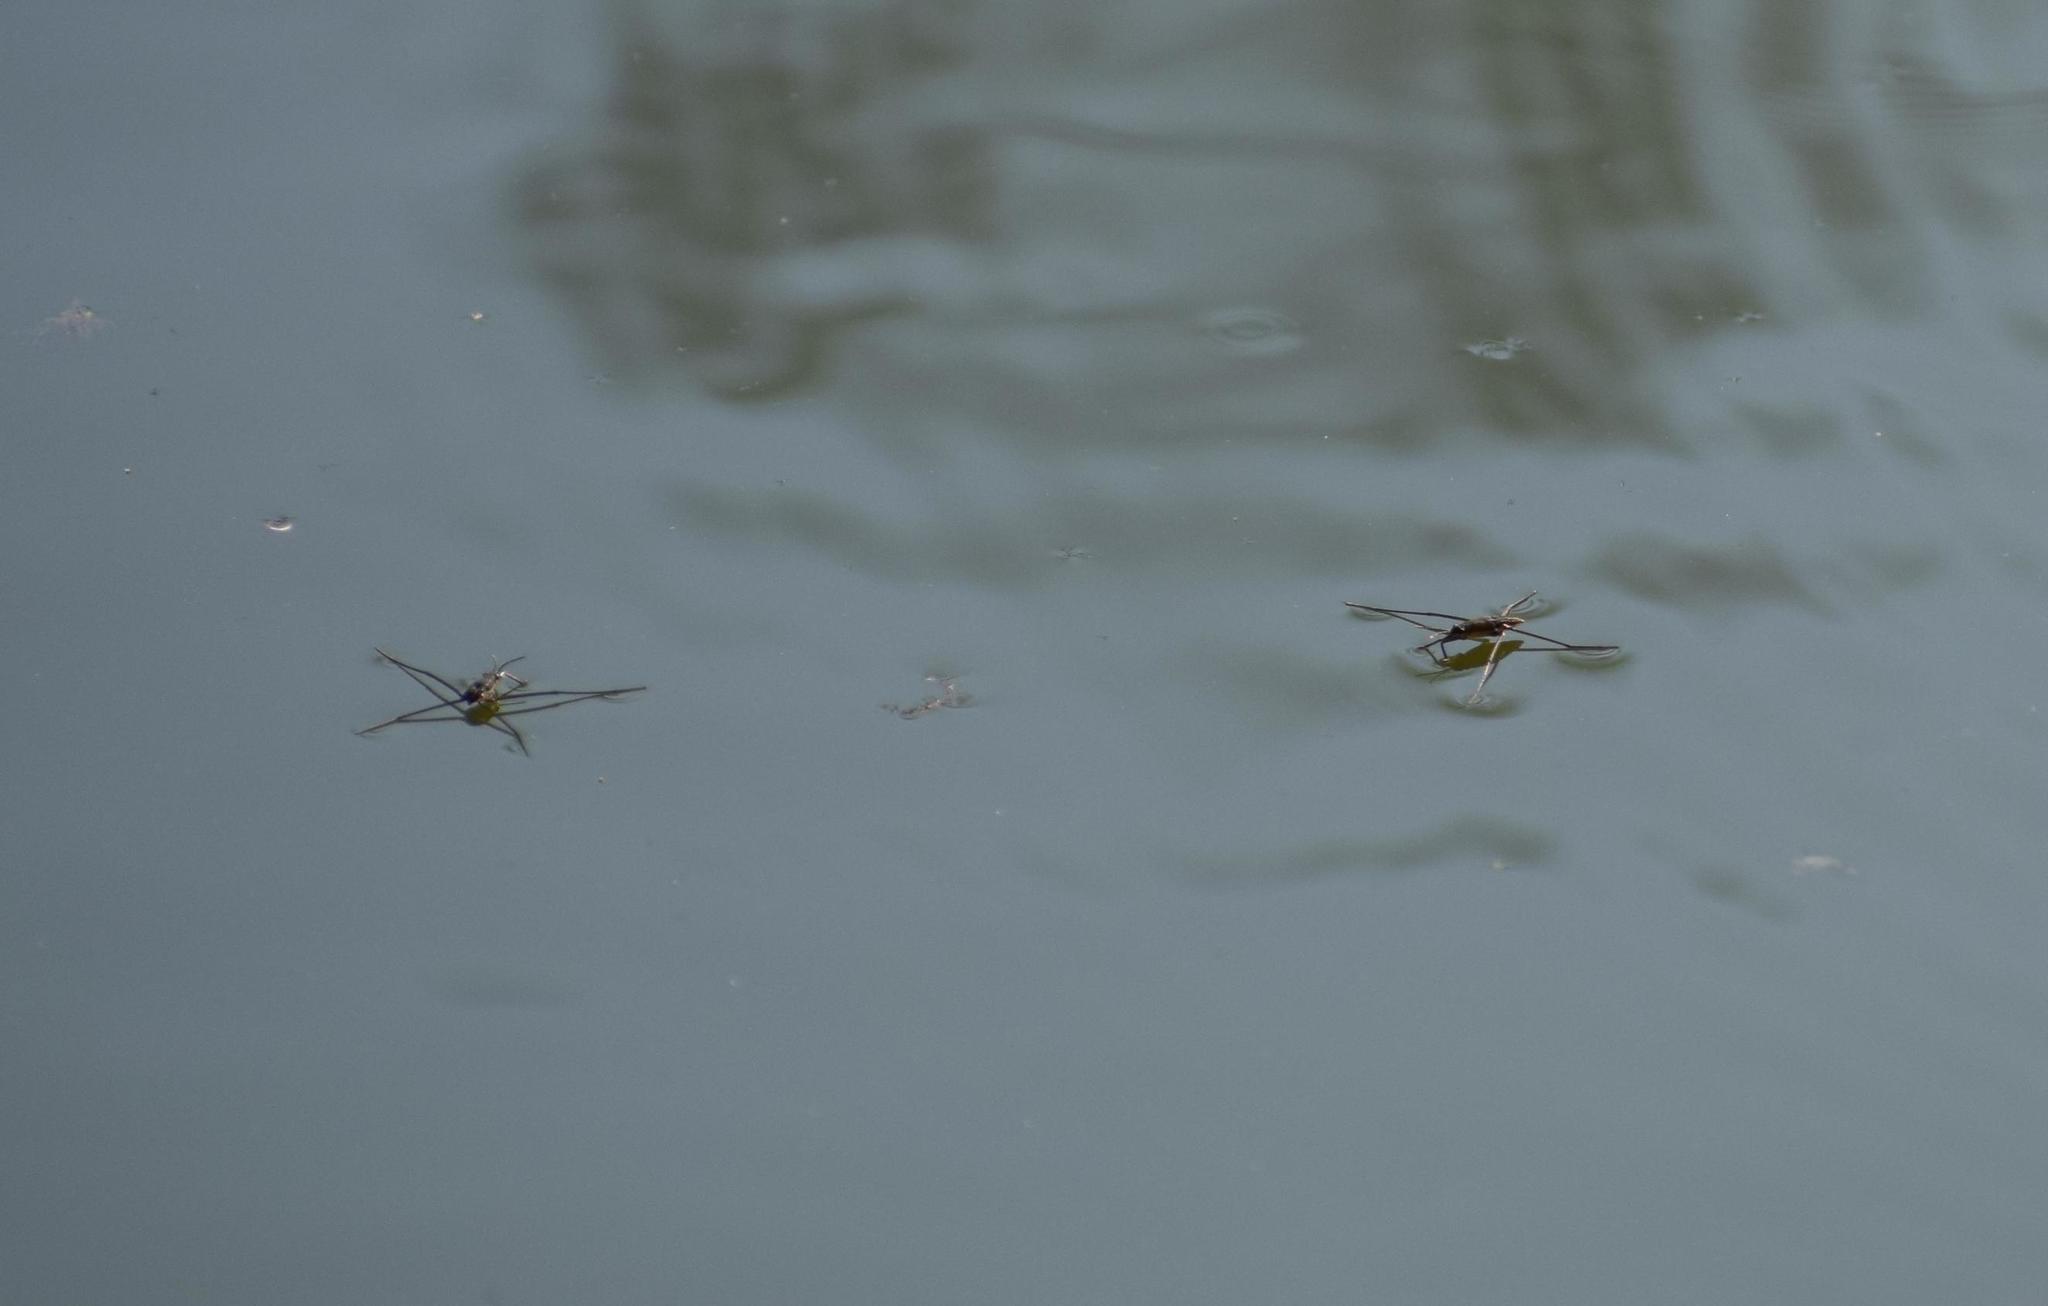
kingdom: Animalia
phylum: Arthropoda
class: Insecta
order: Hemiptera
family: Gerridae
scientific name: Gerridae
